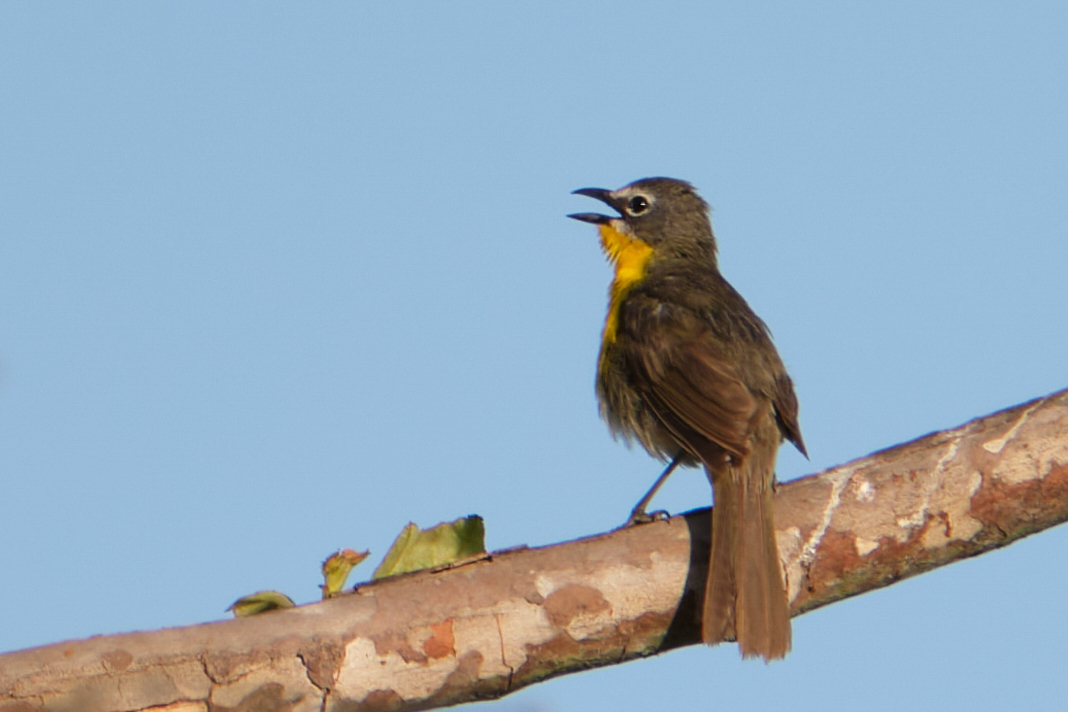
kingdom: Animalia
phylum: Chordata
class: Aves
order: Passeriformes
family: Parulidae
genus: Icteria
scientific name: Icteria virens
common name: Yellow-breasted chat
